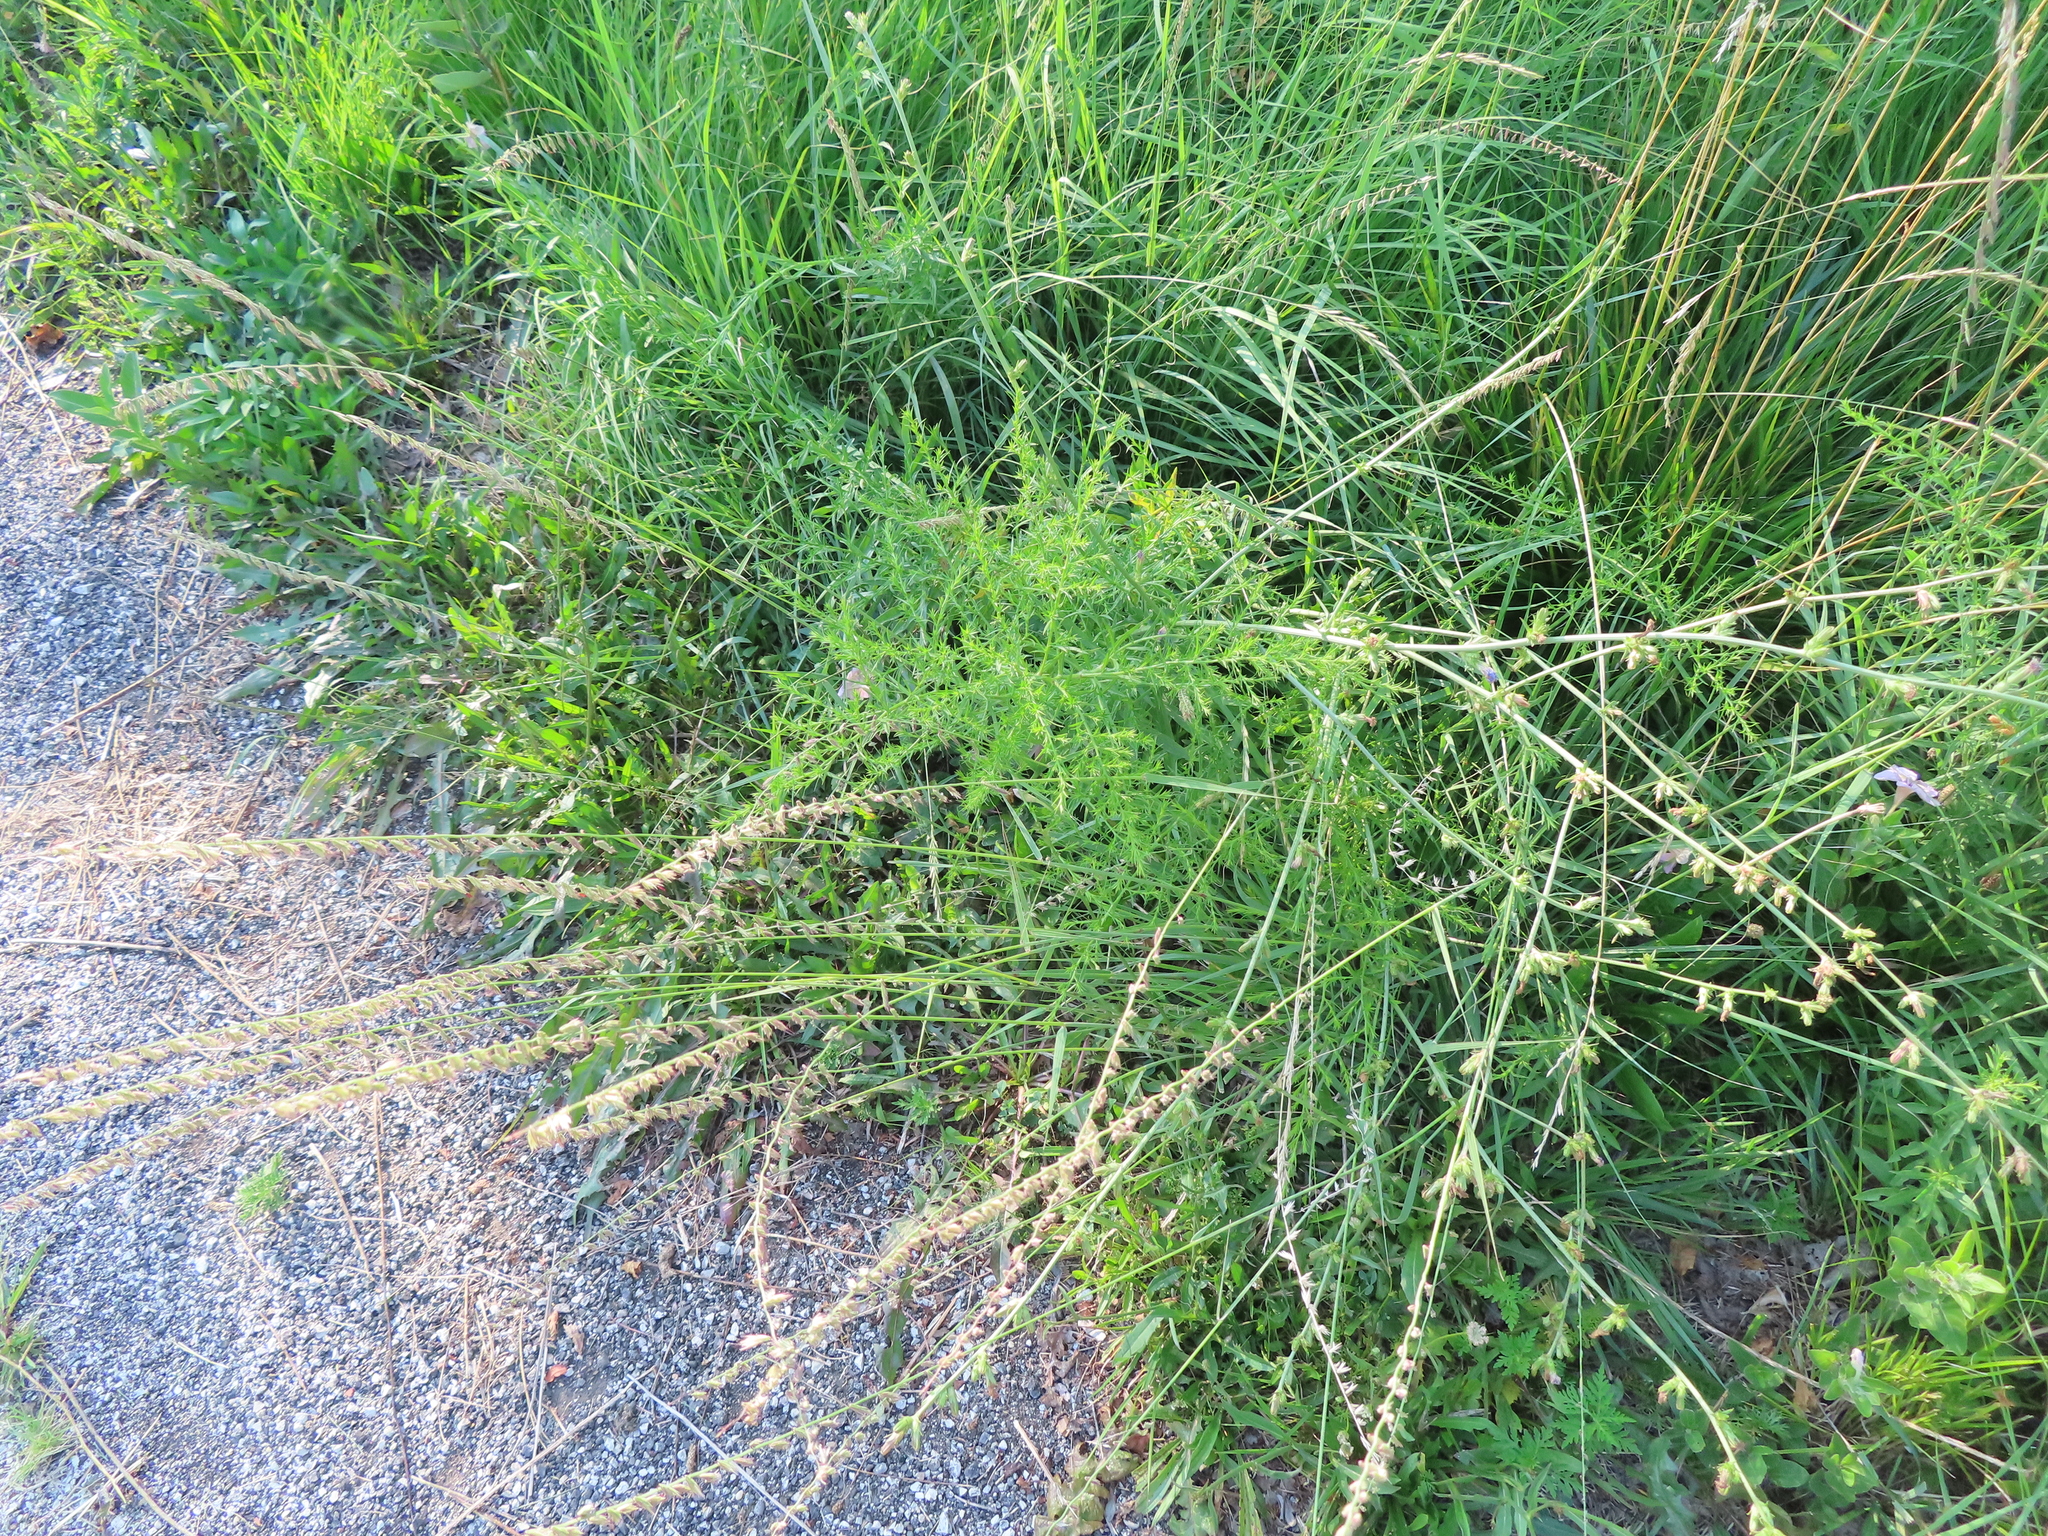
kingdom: Plantae
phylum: Tracheophyta
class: Liliopsida
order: Poales
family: Poaceae
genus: Bouteloua
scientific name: Bouteloua curtipendula
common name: Side-oats grama
